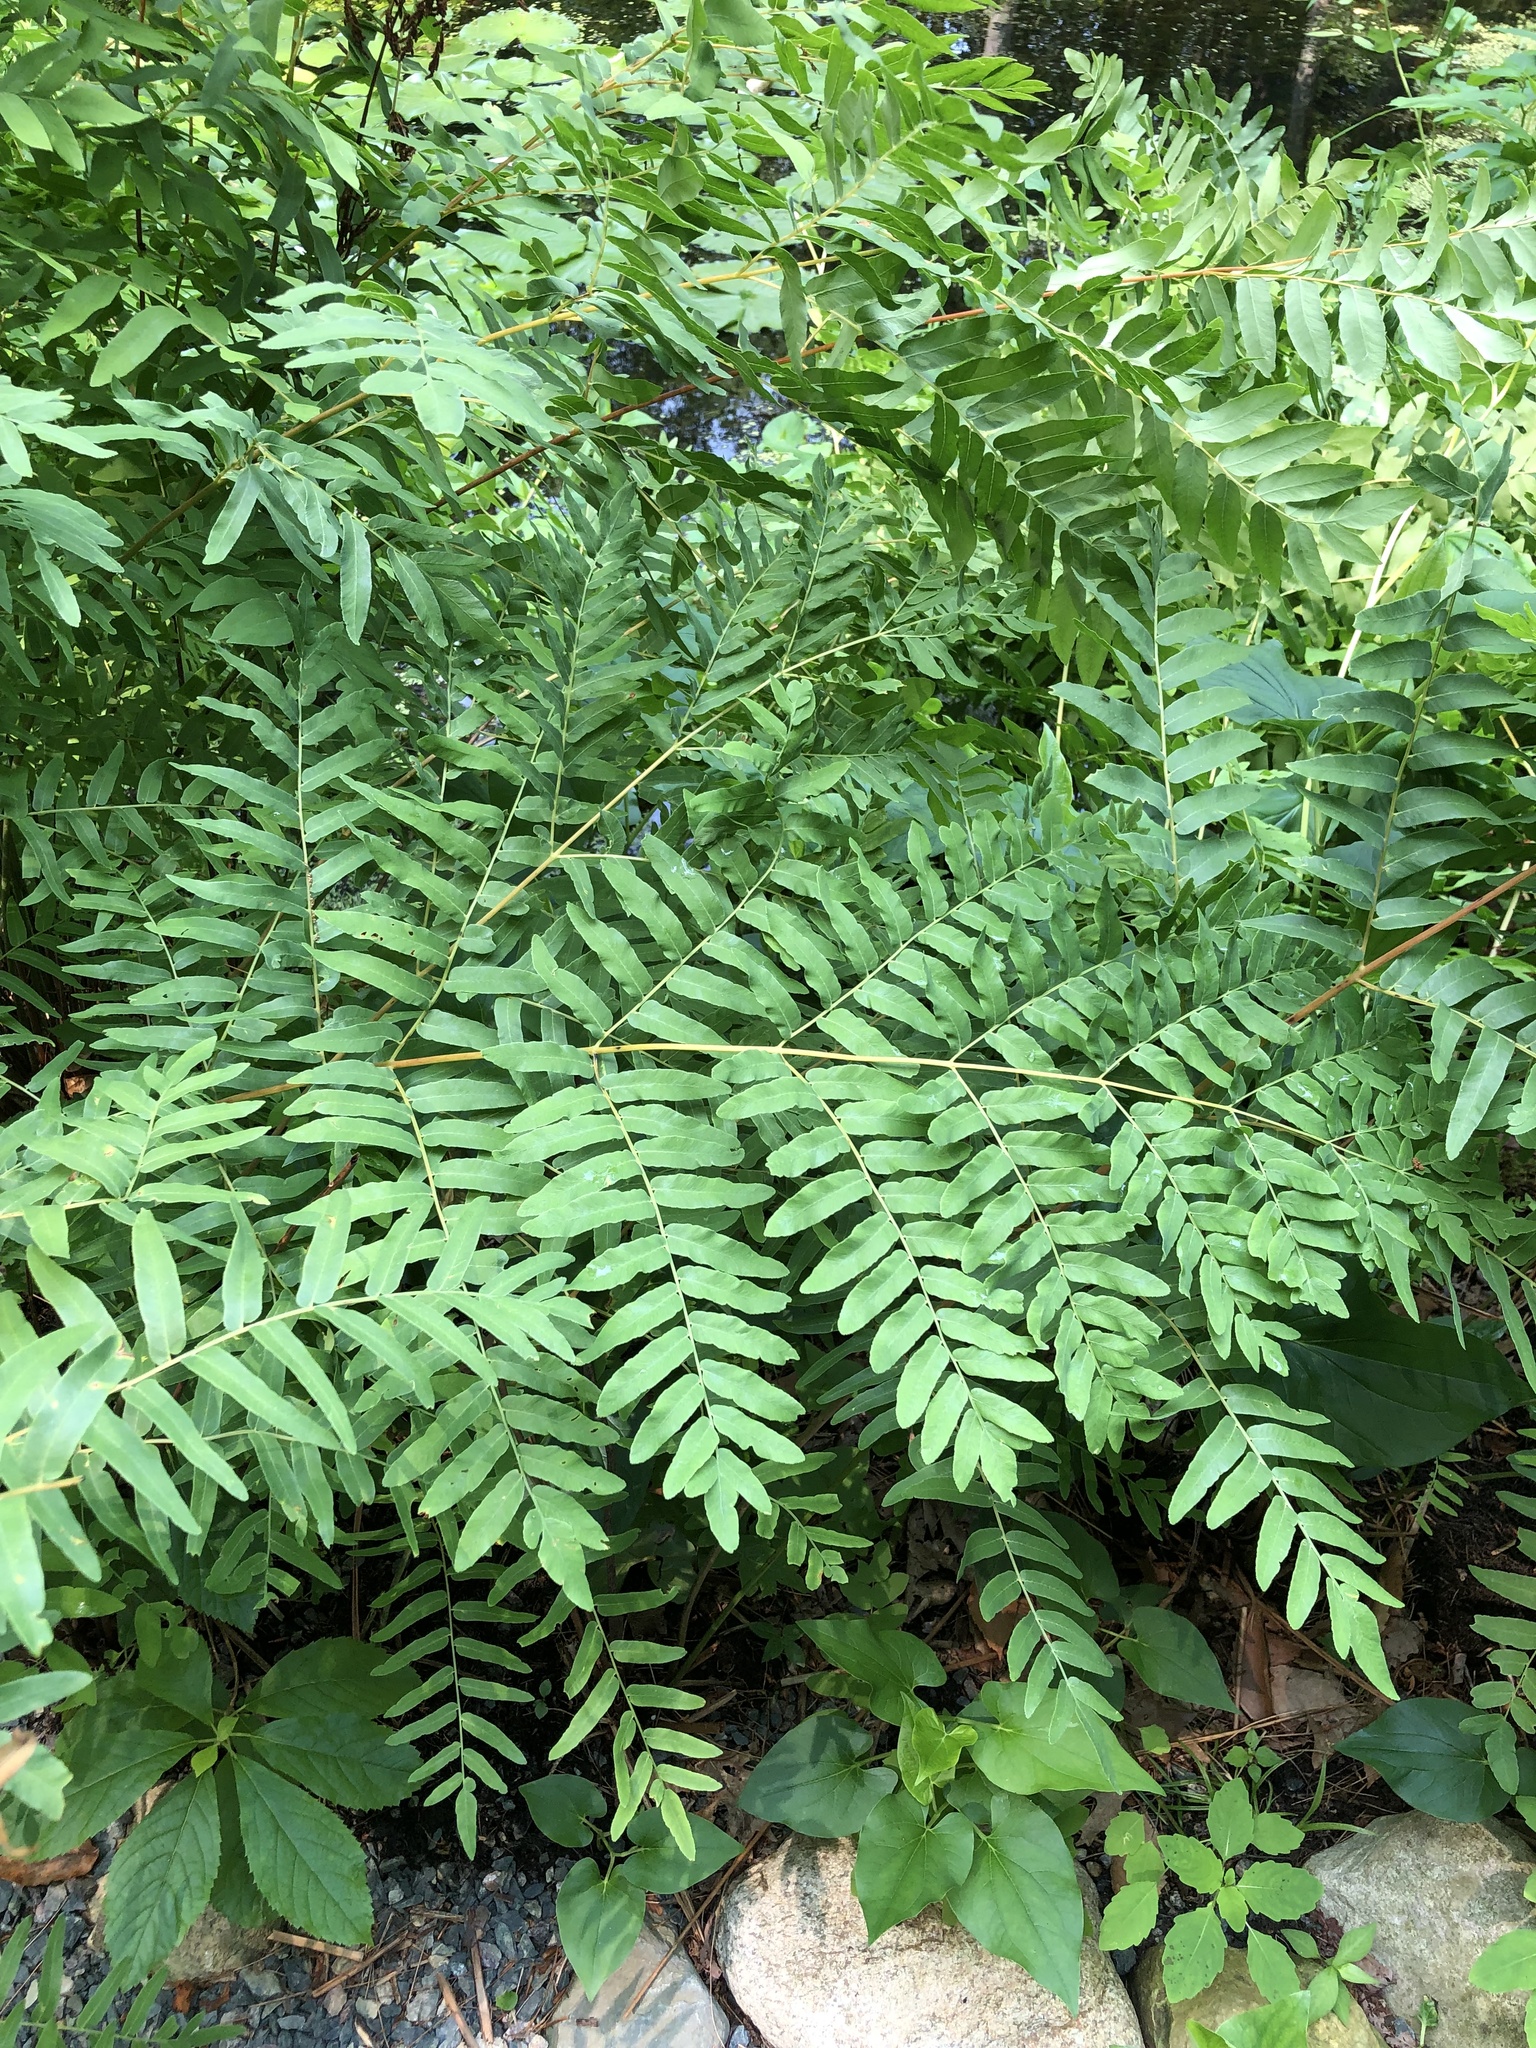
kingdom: Plantae
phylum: Tracheophyta
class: Polypodiopsida
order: Osmundales
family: Osmundaceae
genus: Osmunda
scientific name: Osmunda spectabilis
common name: American royal fern
